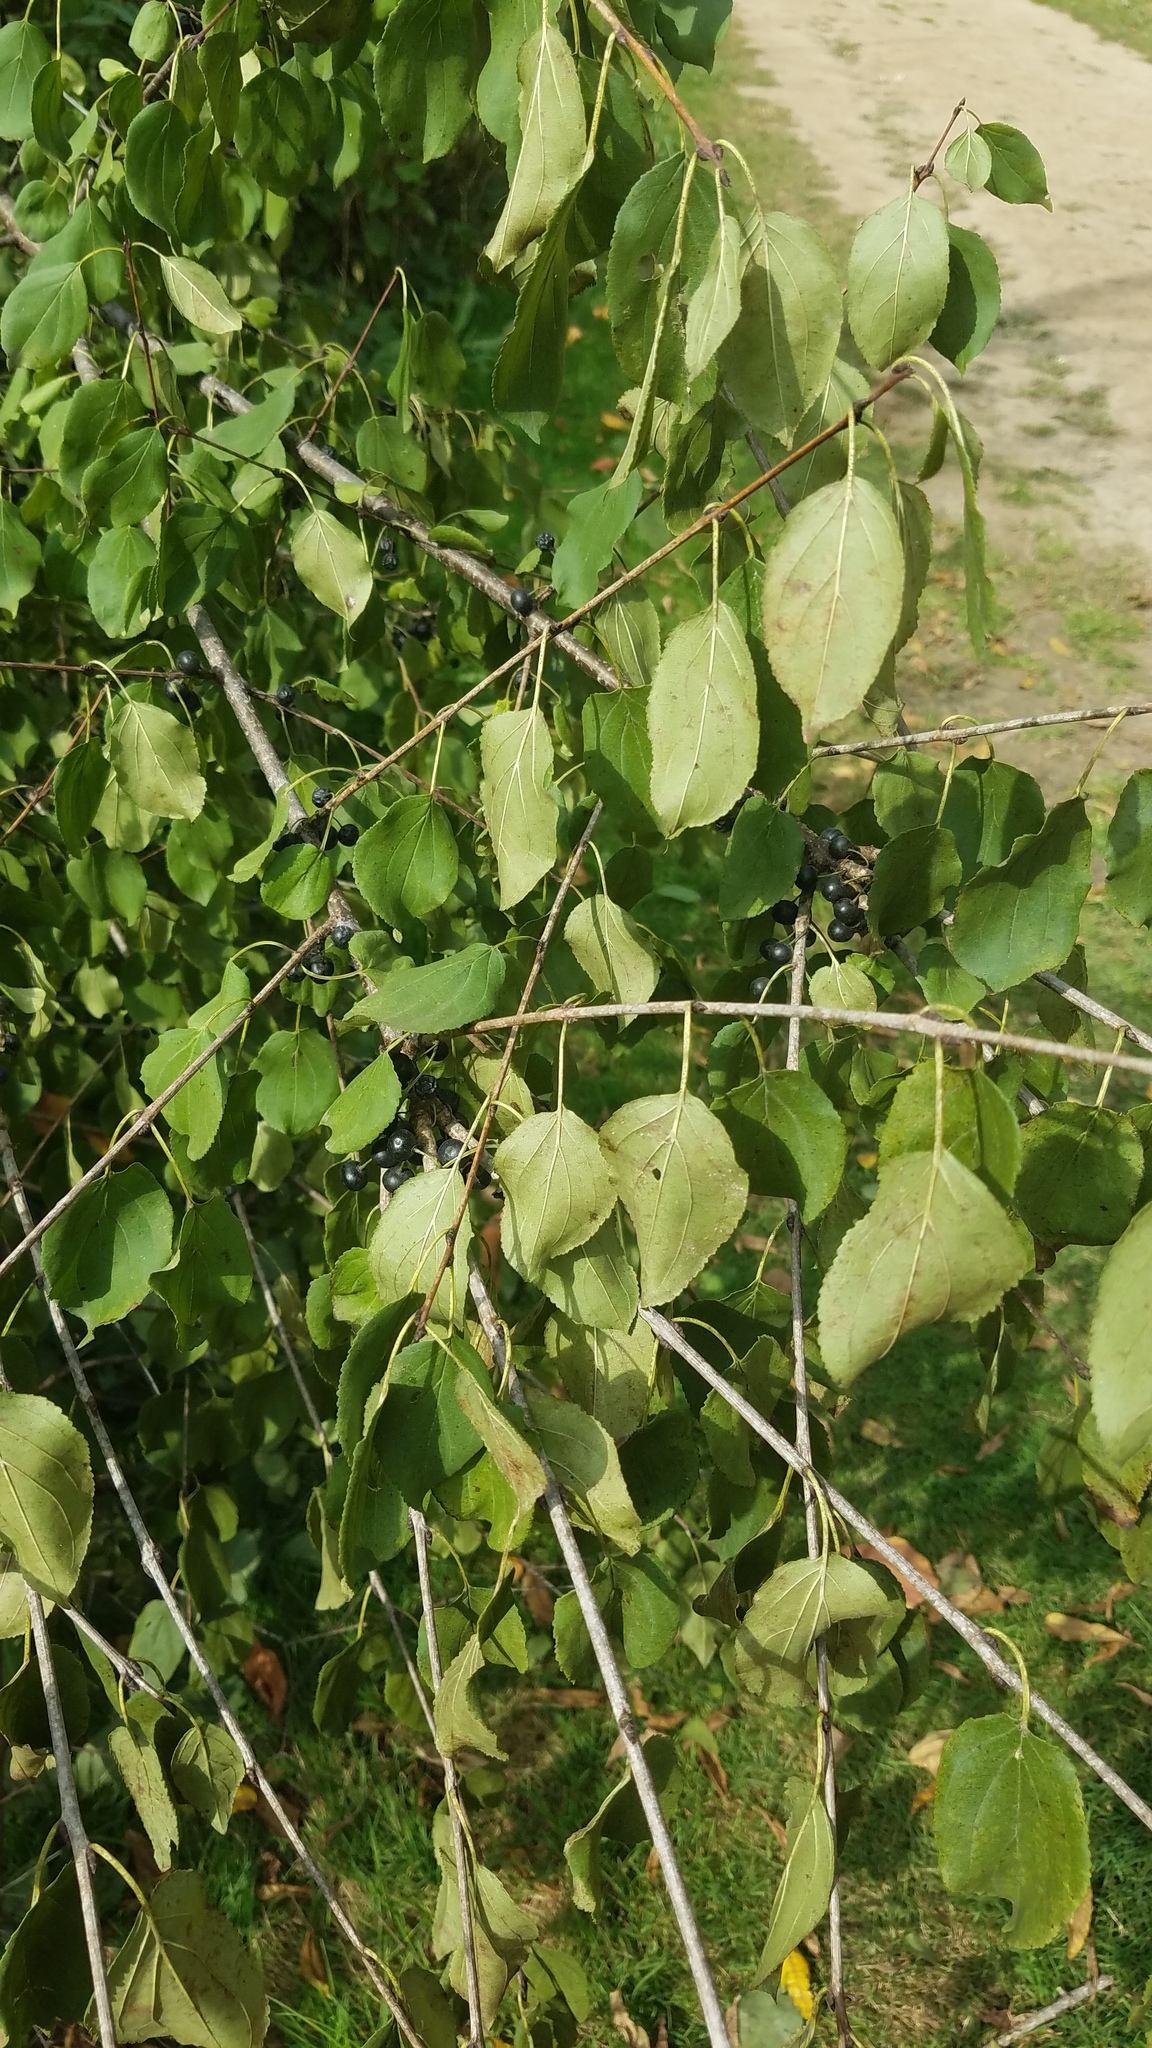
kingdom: Plantae
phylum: Tracheophyta
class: Magnoliopsida
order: Rosales
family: Rhamnaceae
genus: Rhamnus
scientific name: Rhamnus cathartica
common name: Common buckthorn
